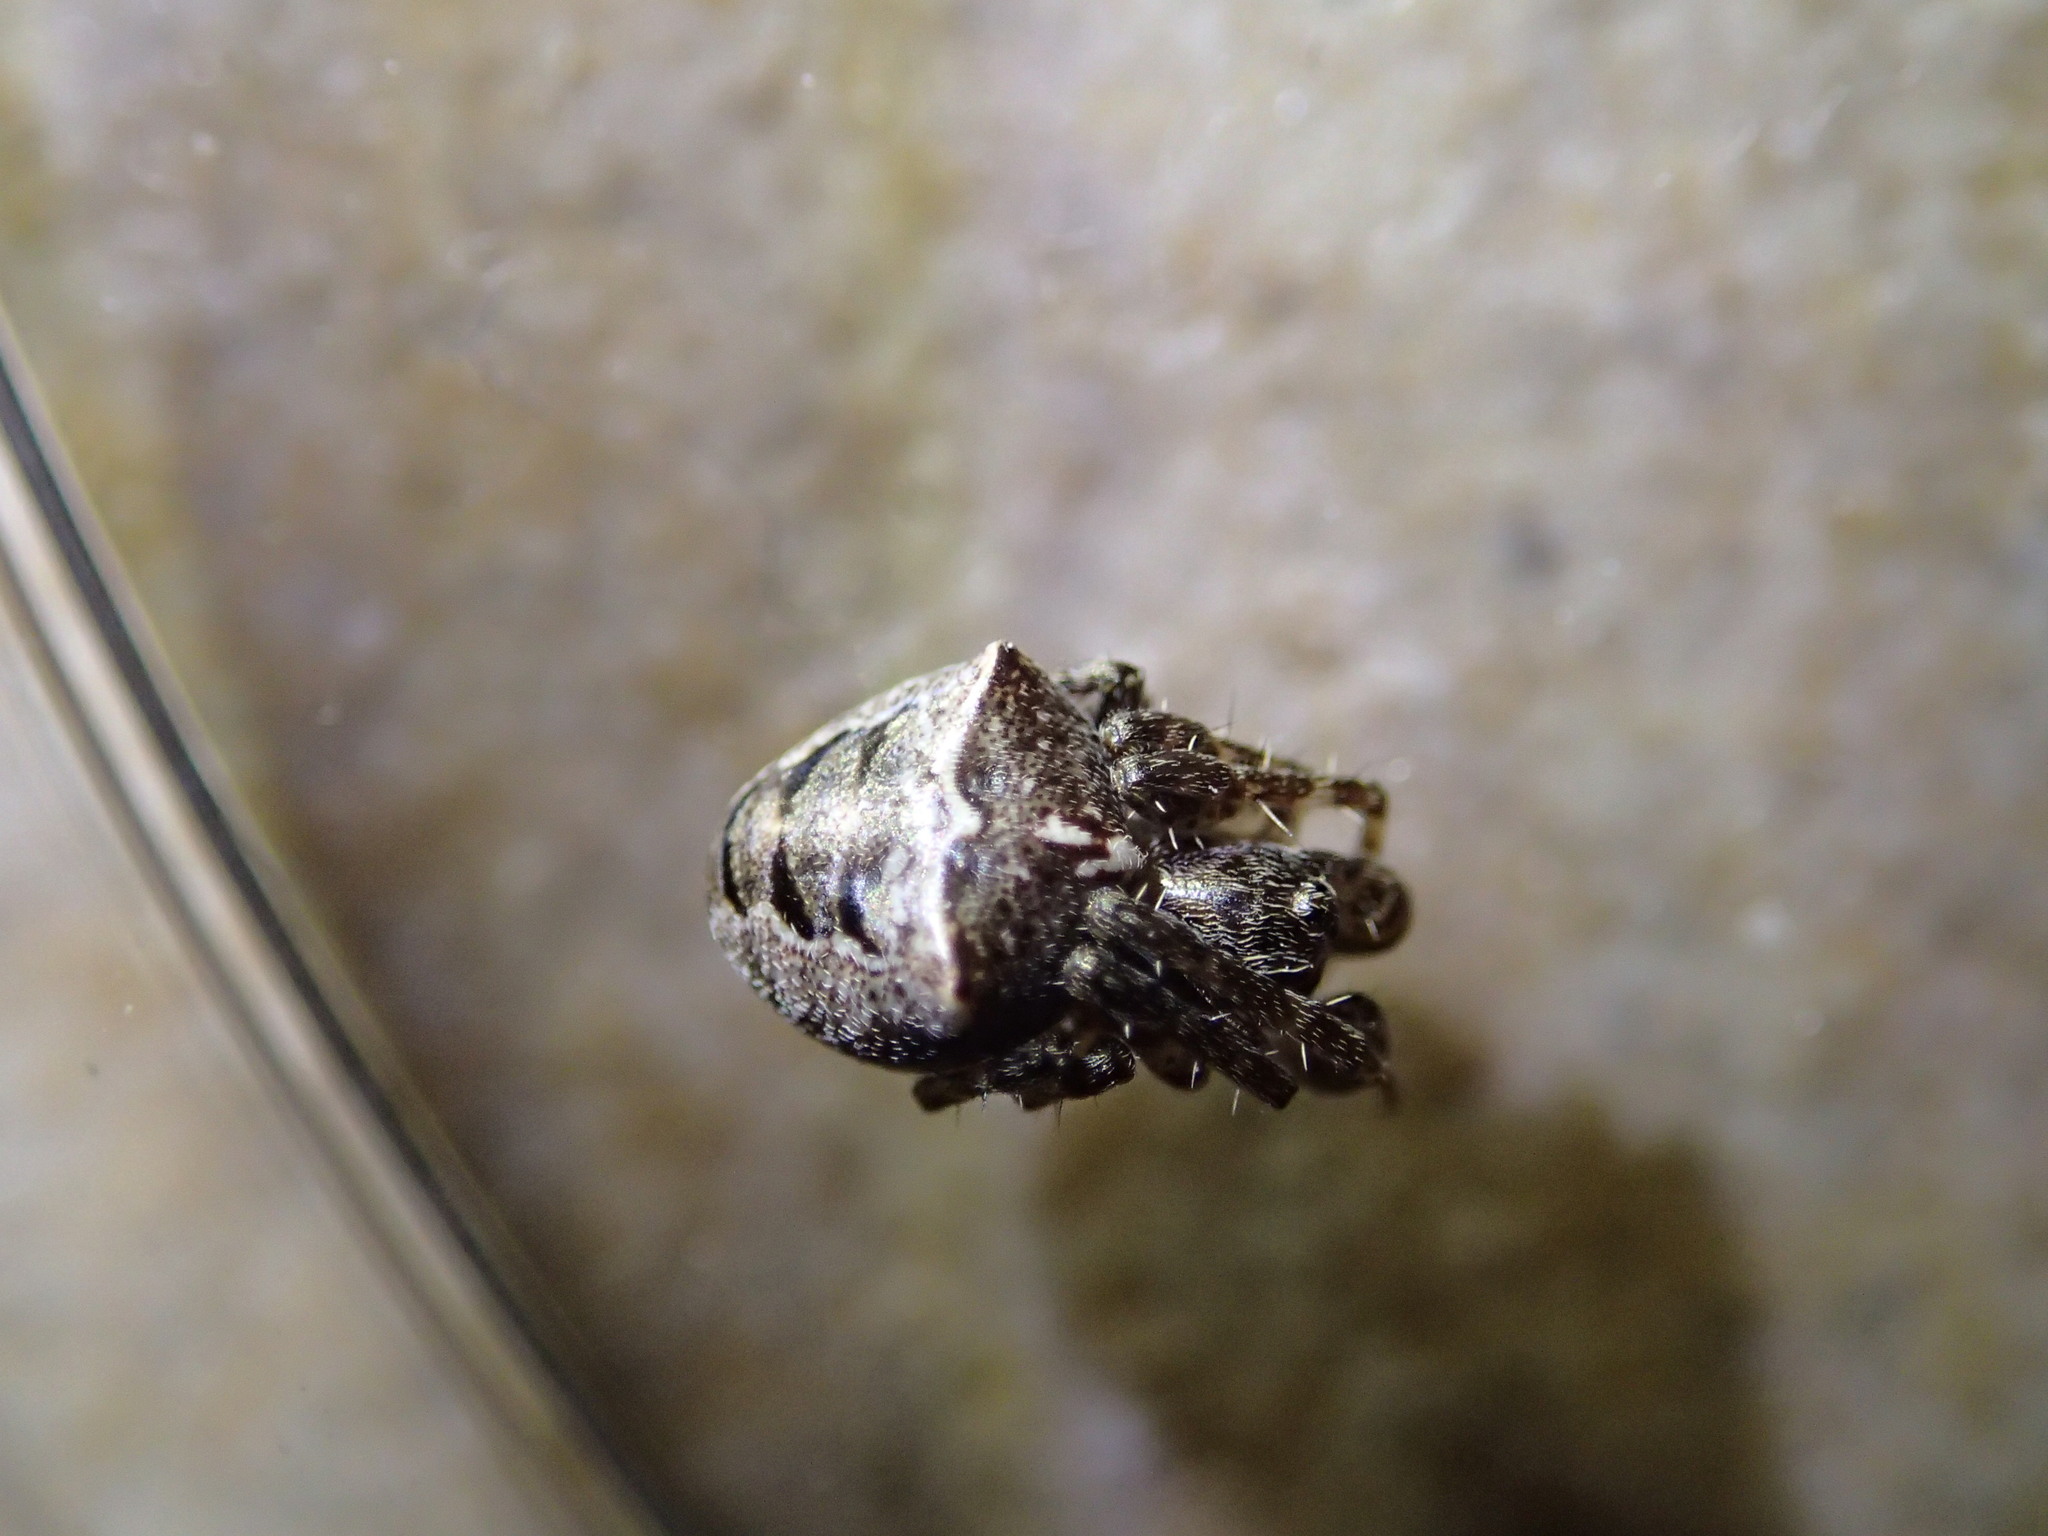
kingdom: Animalia
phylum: Arthropoda
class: Arachnida
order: Araneae
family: Araneidae
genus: Gibbaranea
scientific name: Gibbaranea bituberculata
